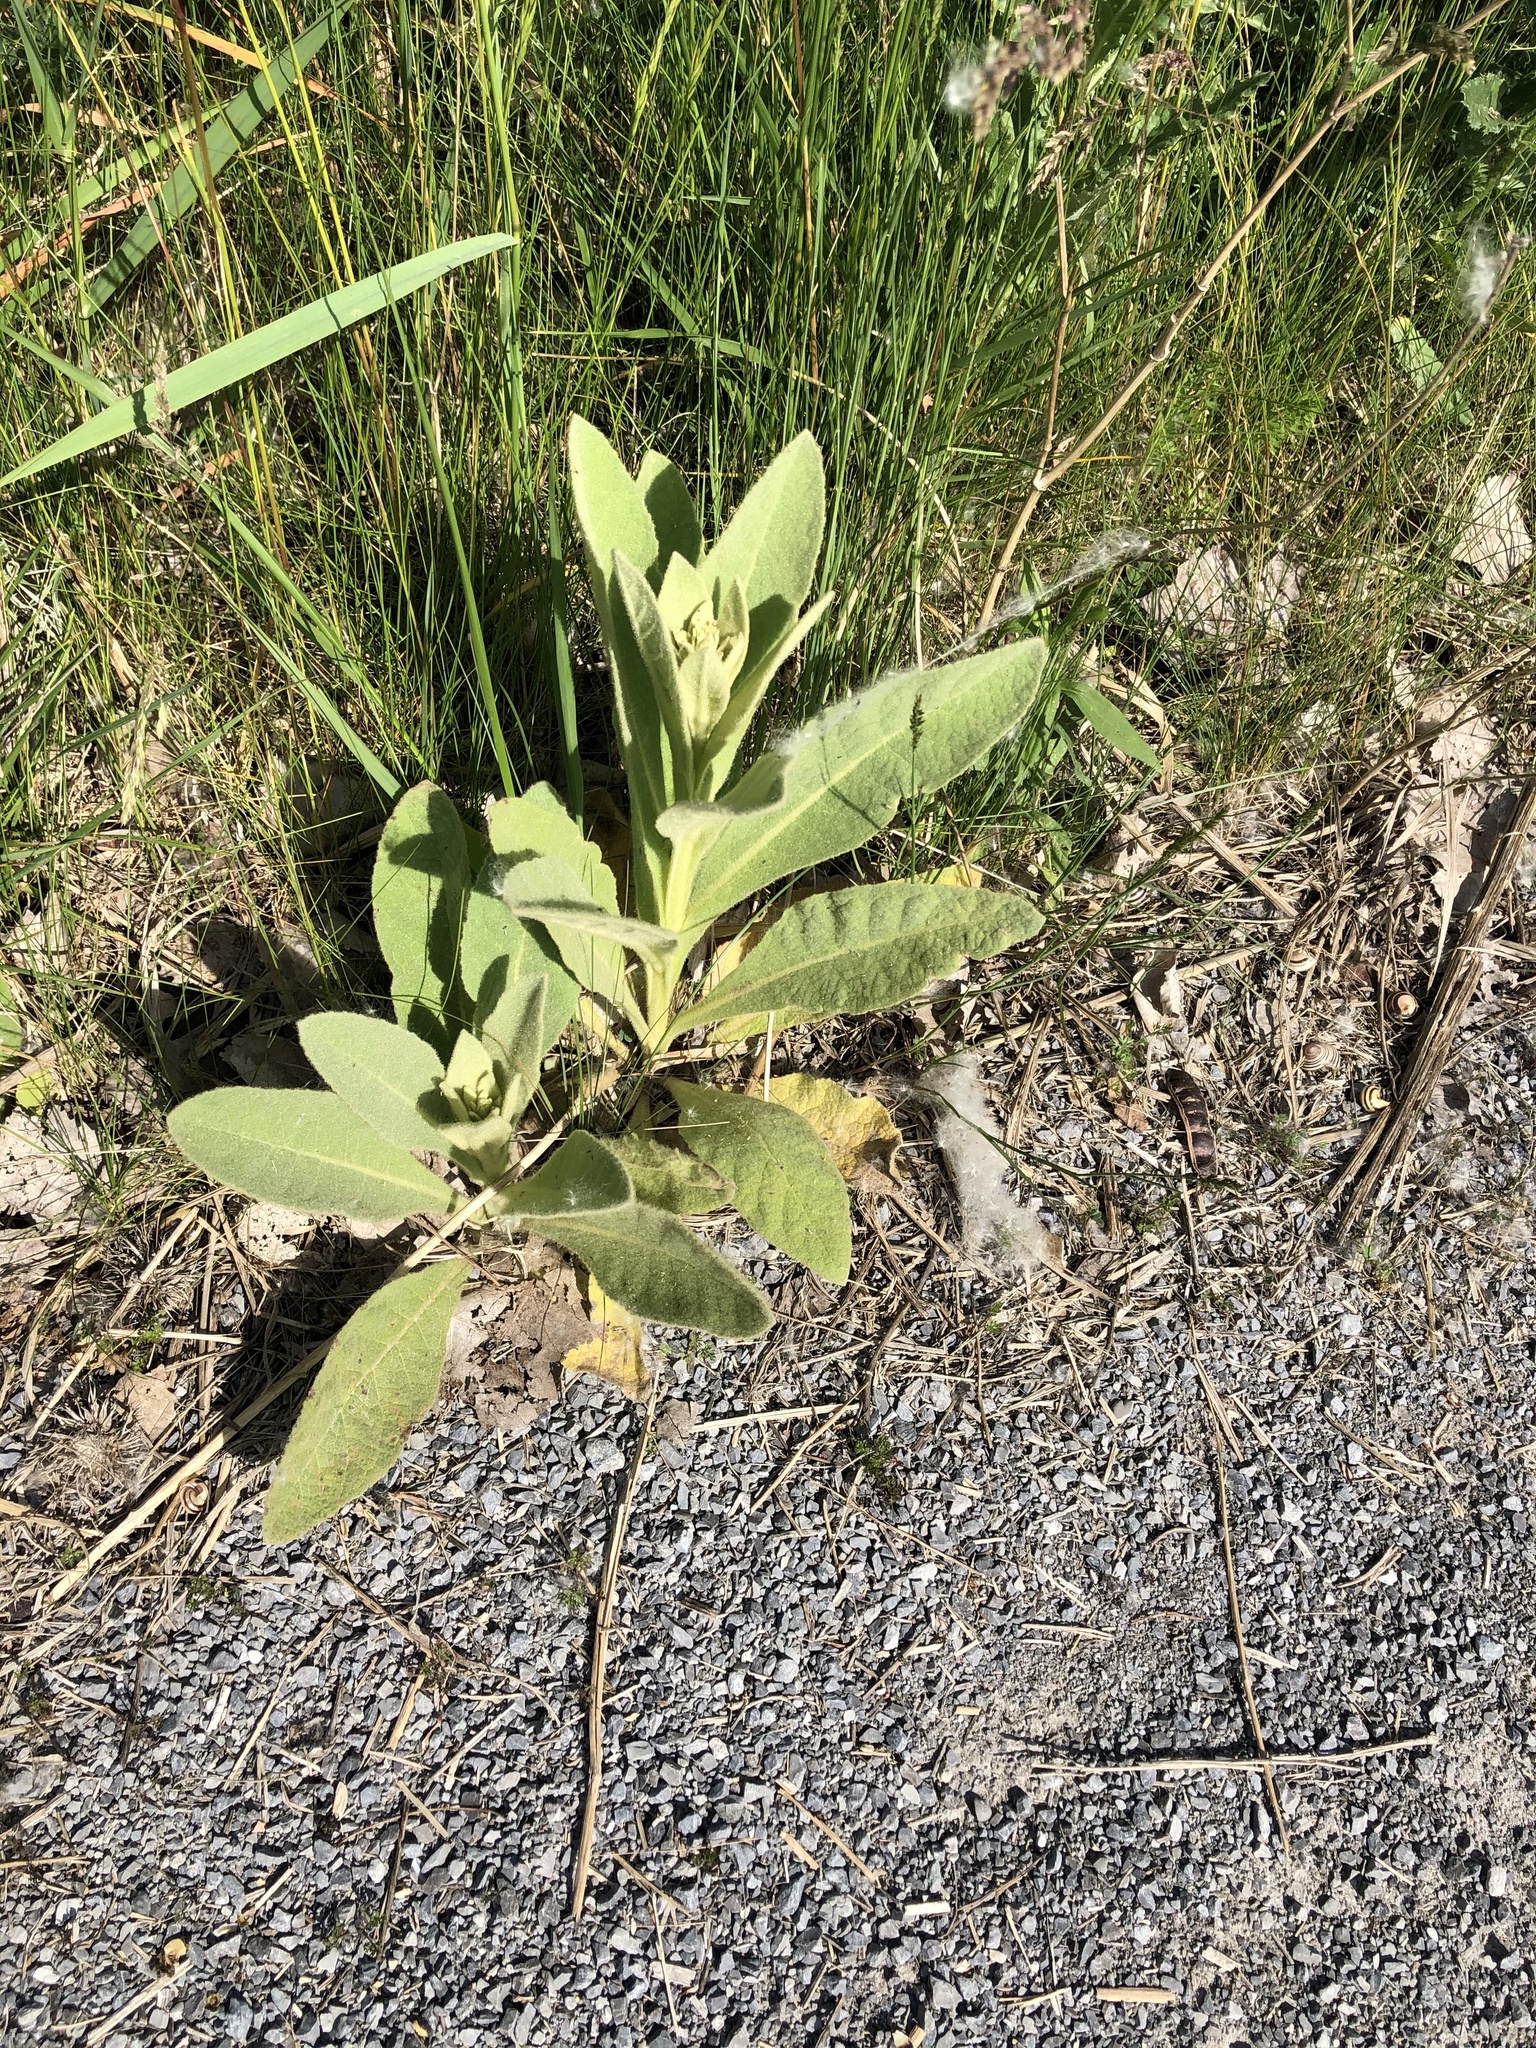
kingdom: Plantae
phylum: Tracheophyta
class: Magnoliopsida
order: Lamiales
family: Scrophulariaceae
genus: Verbascum
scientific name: Verbascum thapsus
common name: Common mullein
